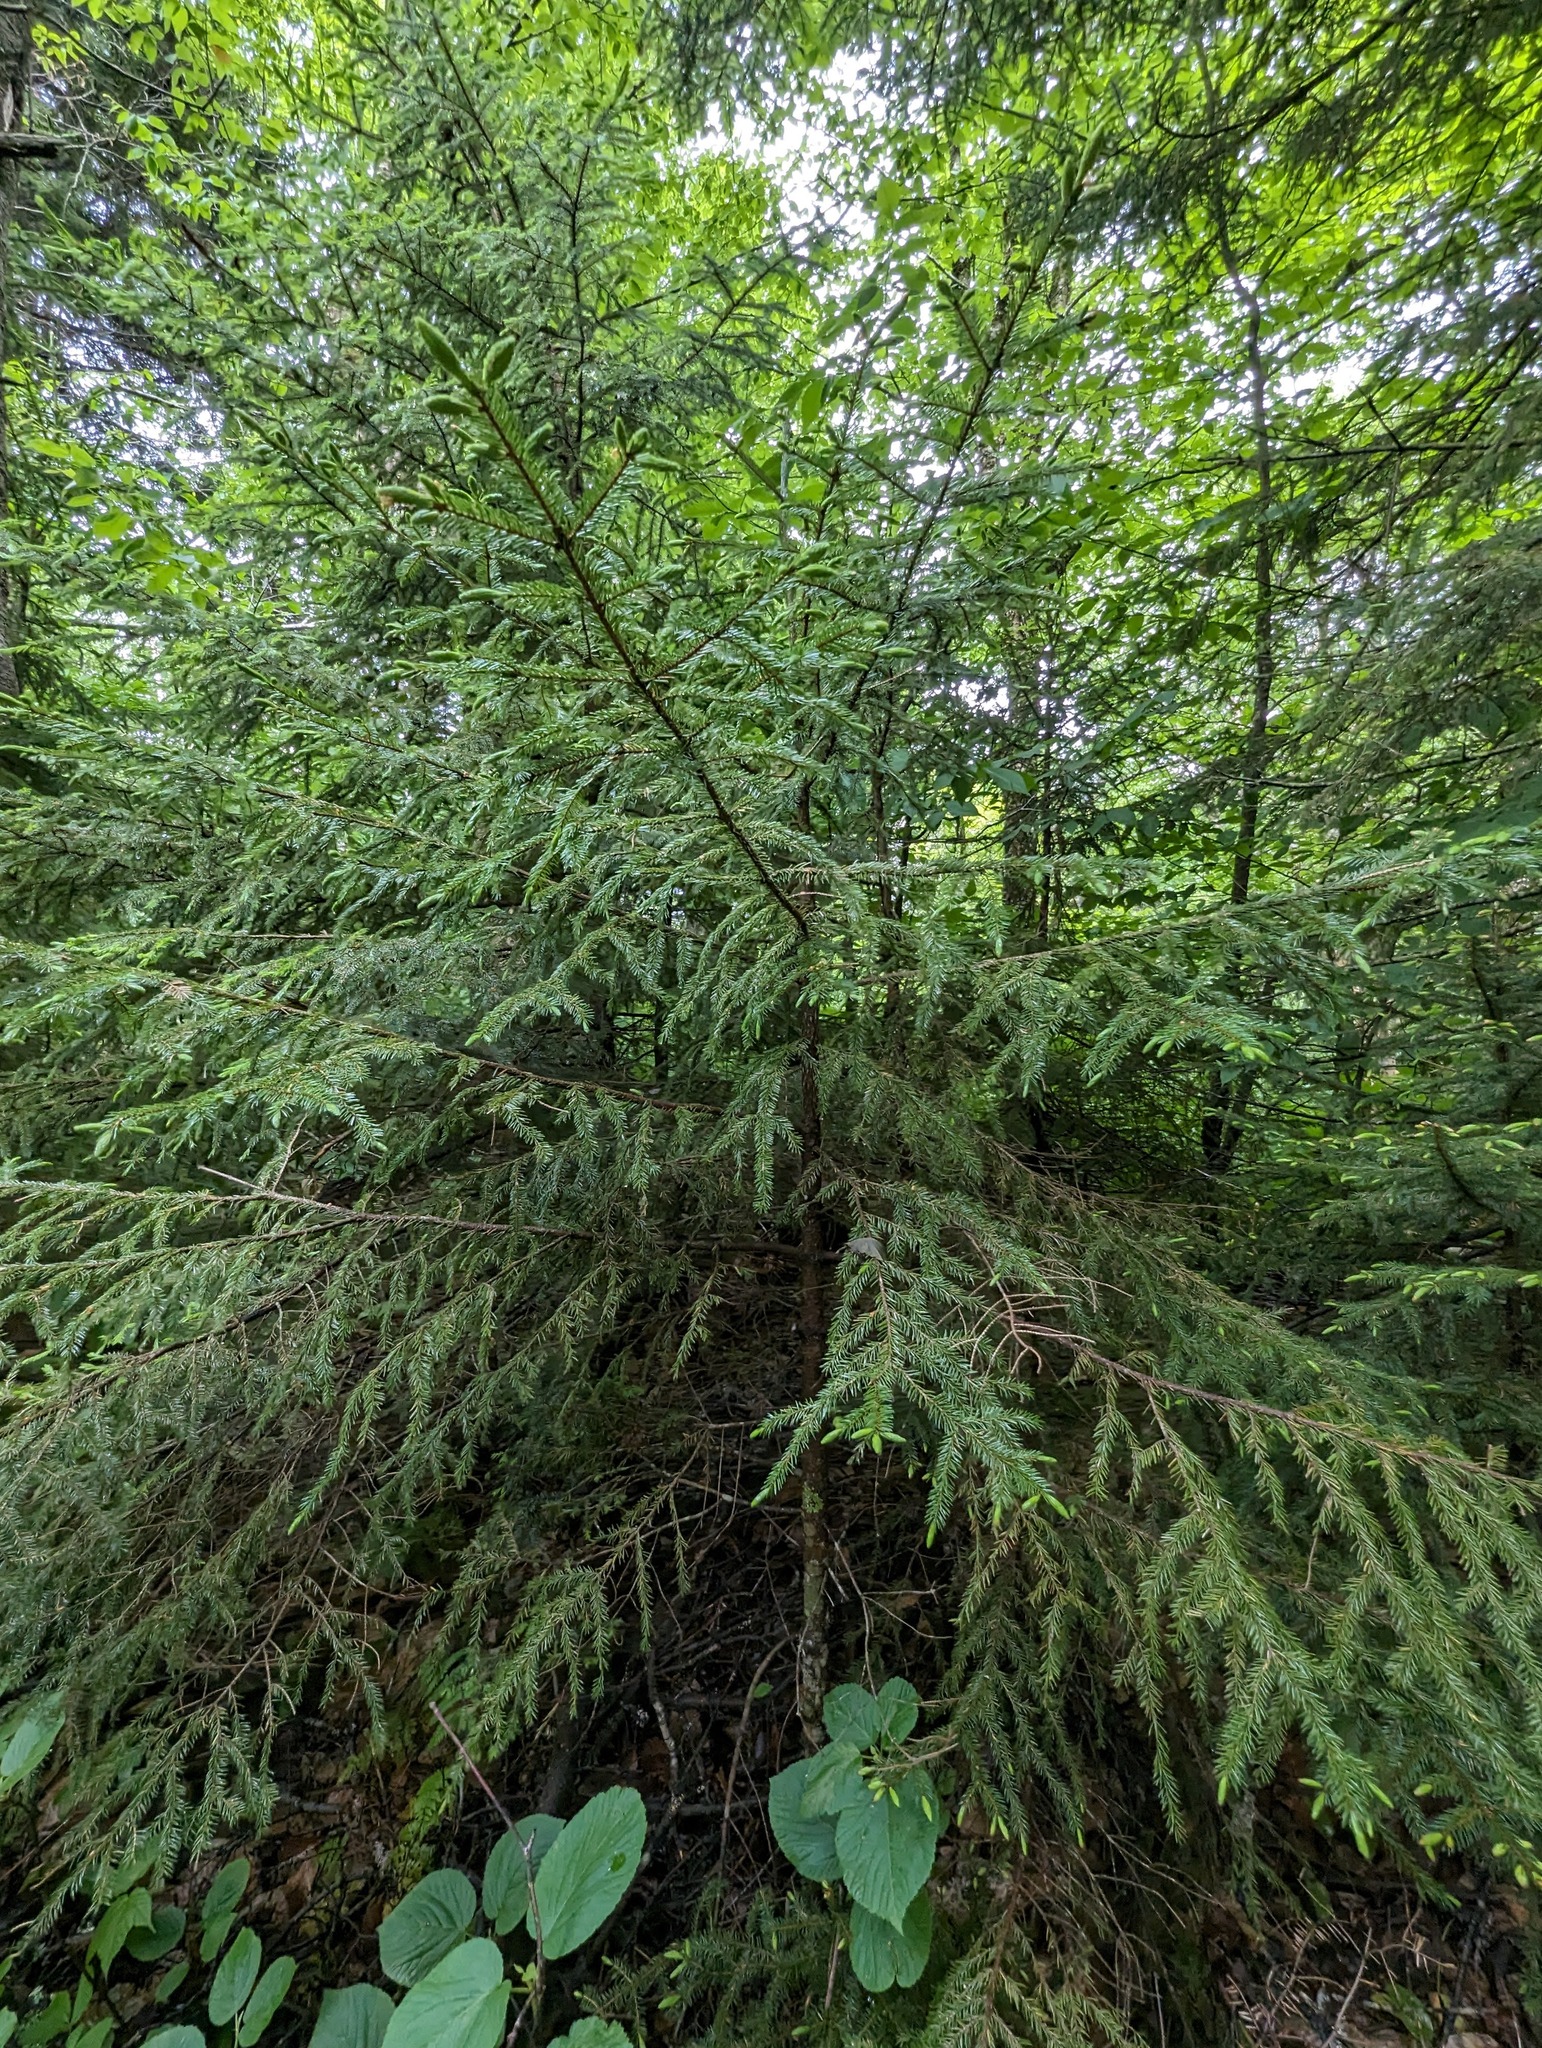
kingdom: Plantae
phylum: Tracheophyta
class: Pinopsida
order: Pinales
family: Pinaceae
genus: Picea
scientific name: Picea rubens
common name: Red spruce
